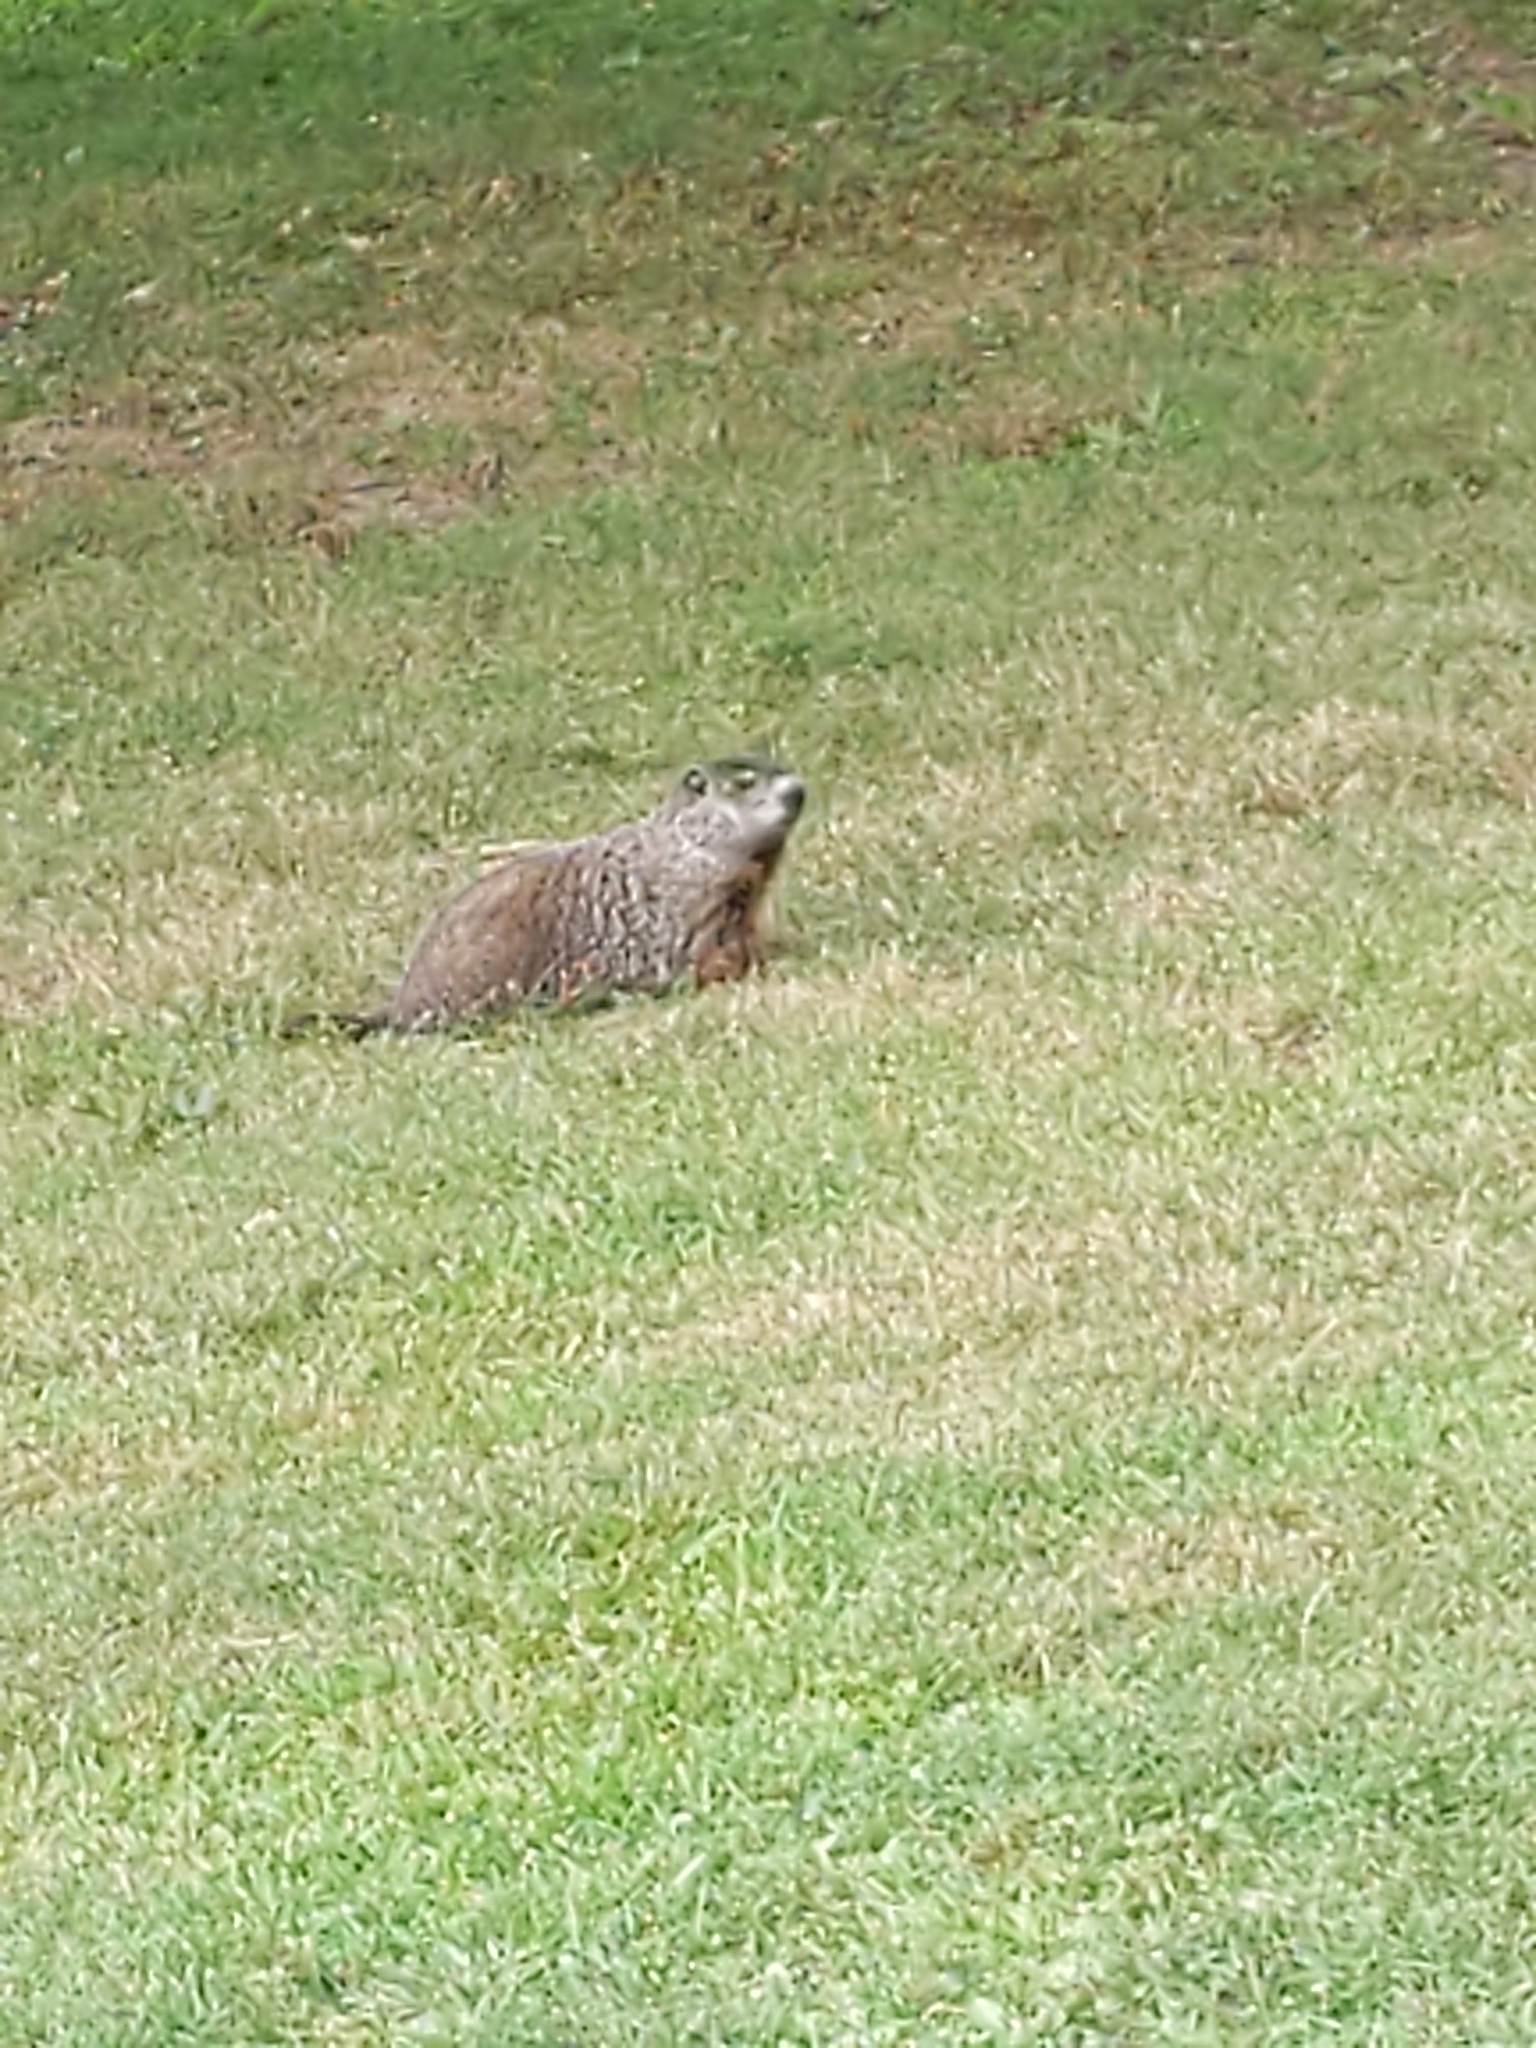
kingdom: Animalia
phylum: Chordata
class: Mammalia
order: Rodentia
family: Sciuridae
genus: Marmota
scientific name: Marmota monax
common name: Groundhog
